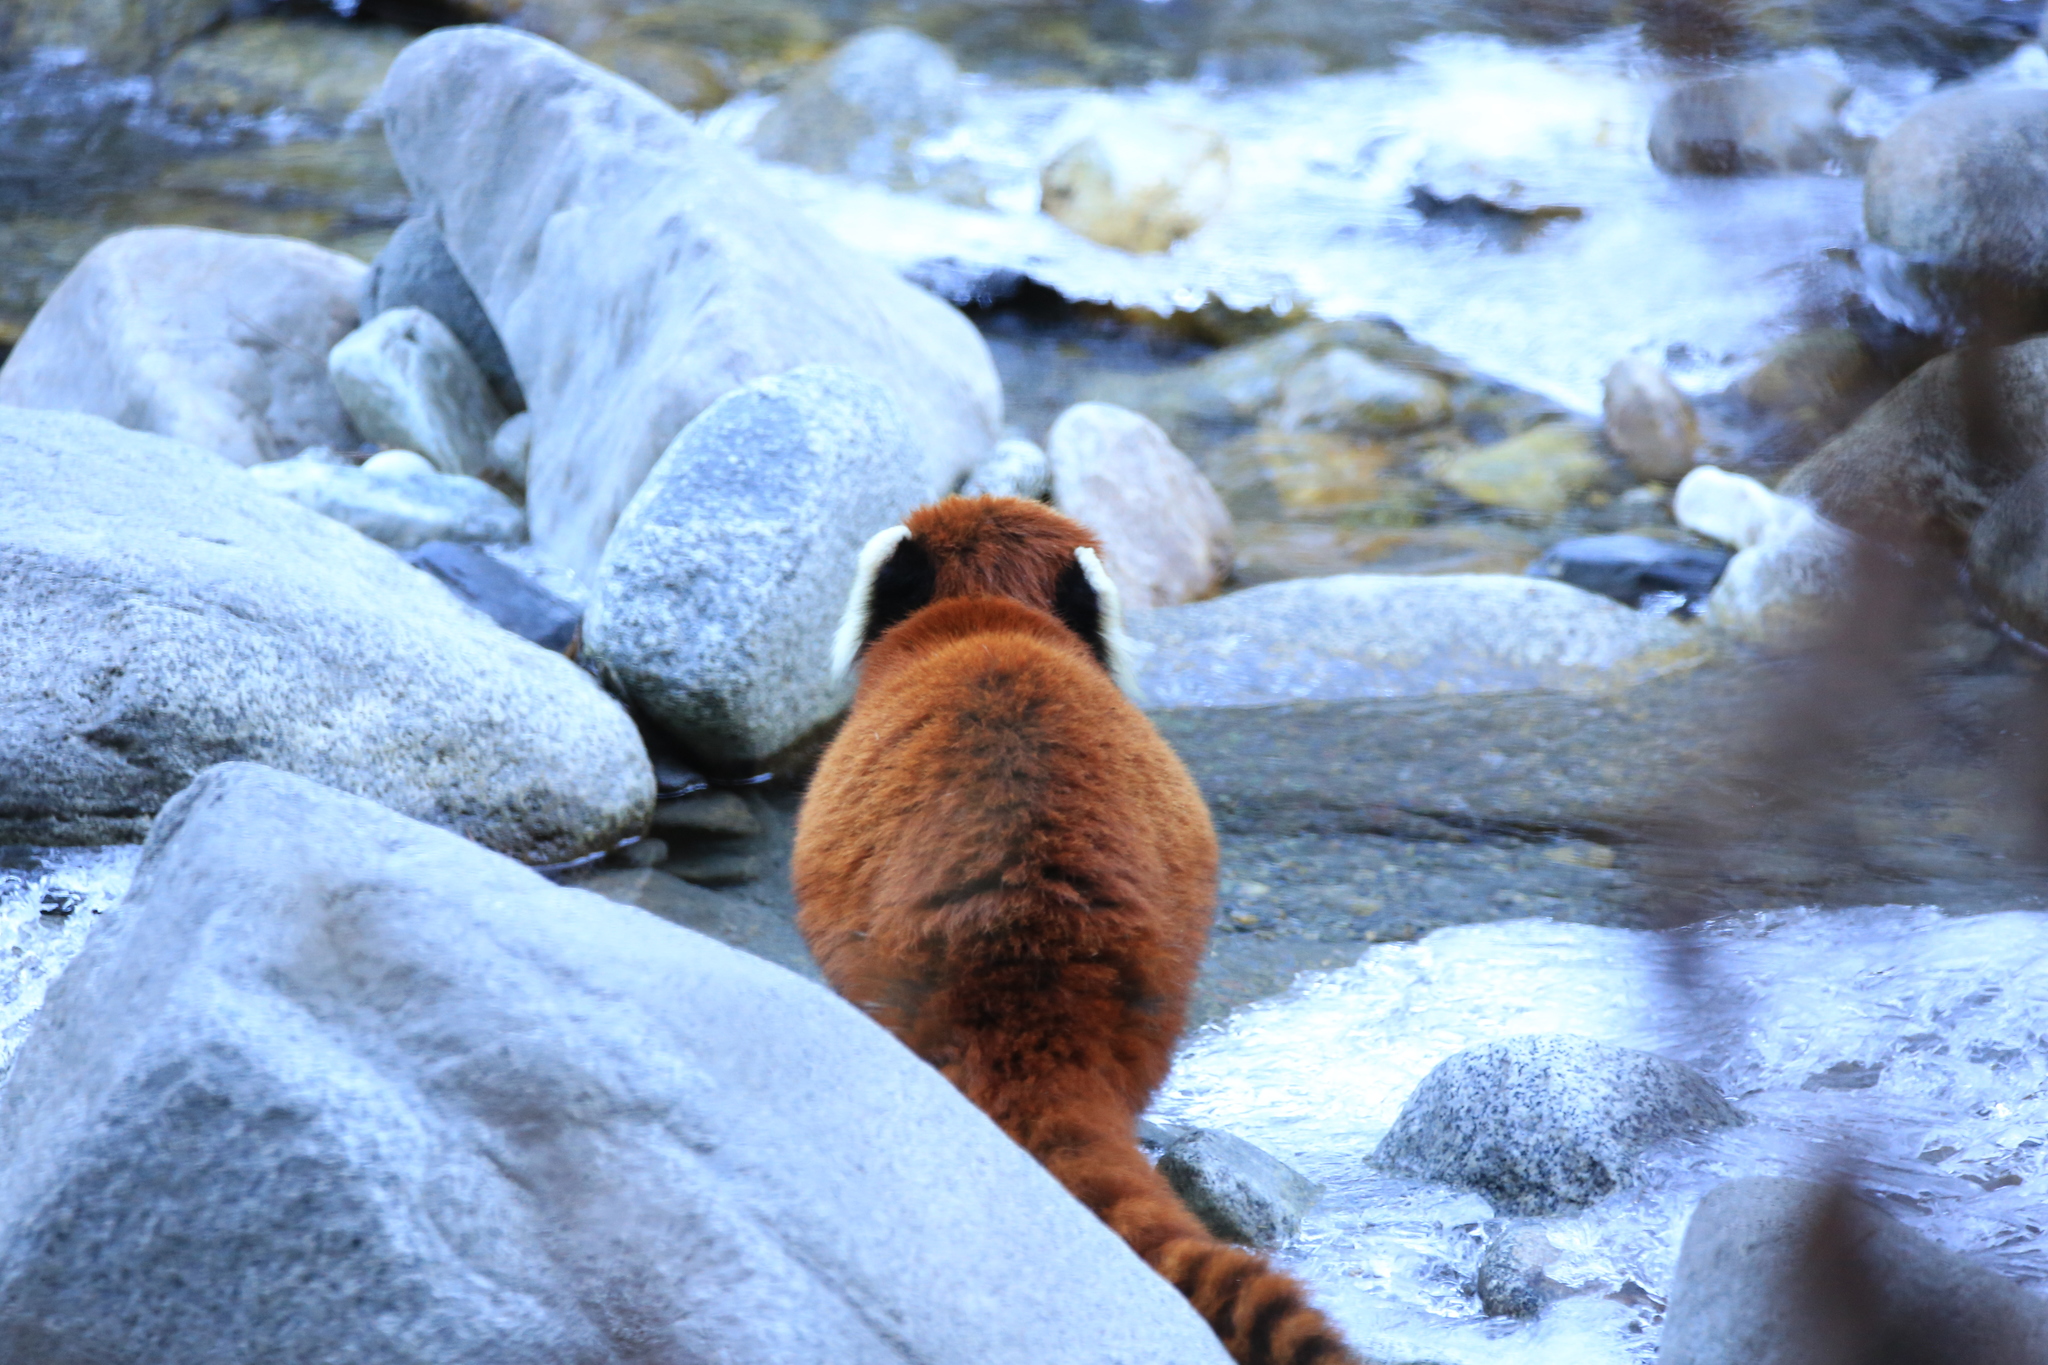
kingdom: Animalia
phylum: Chordata
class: Mammalia
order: Carnivora
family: Ailuridae
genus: Ailurus
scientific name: Ailurus styani
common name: Chinese red panda
